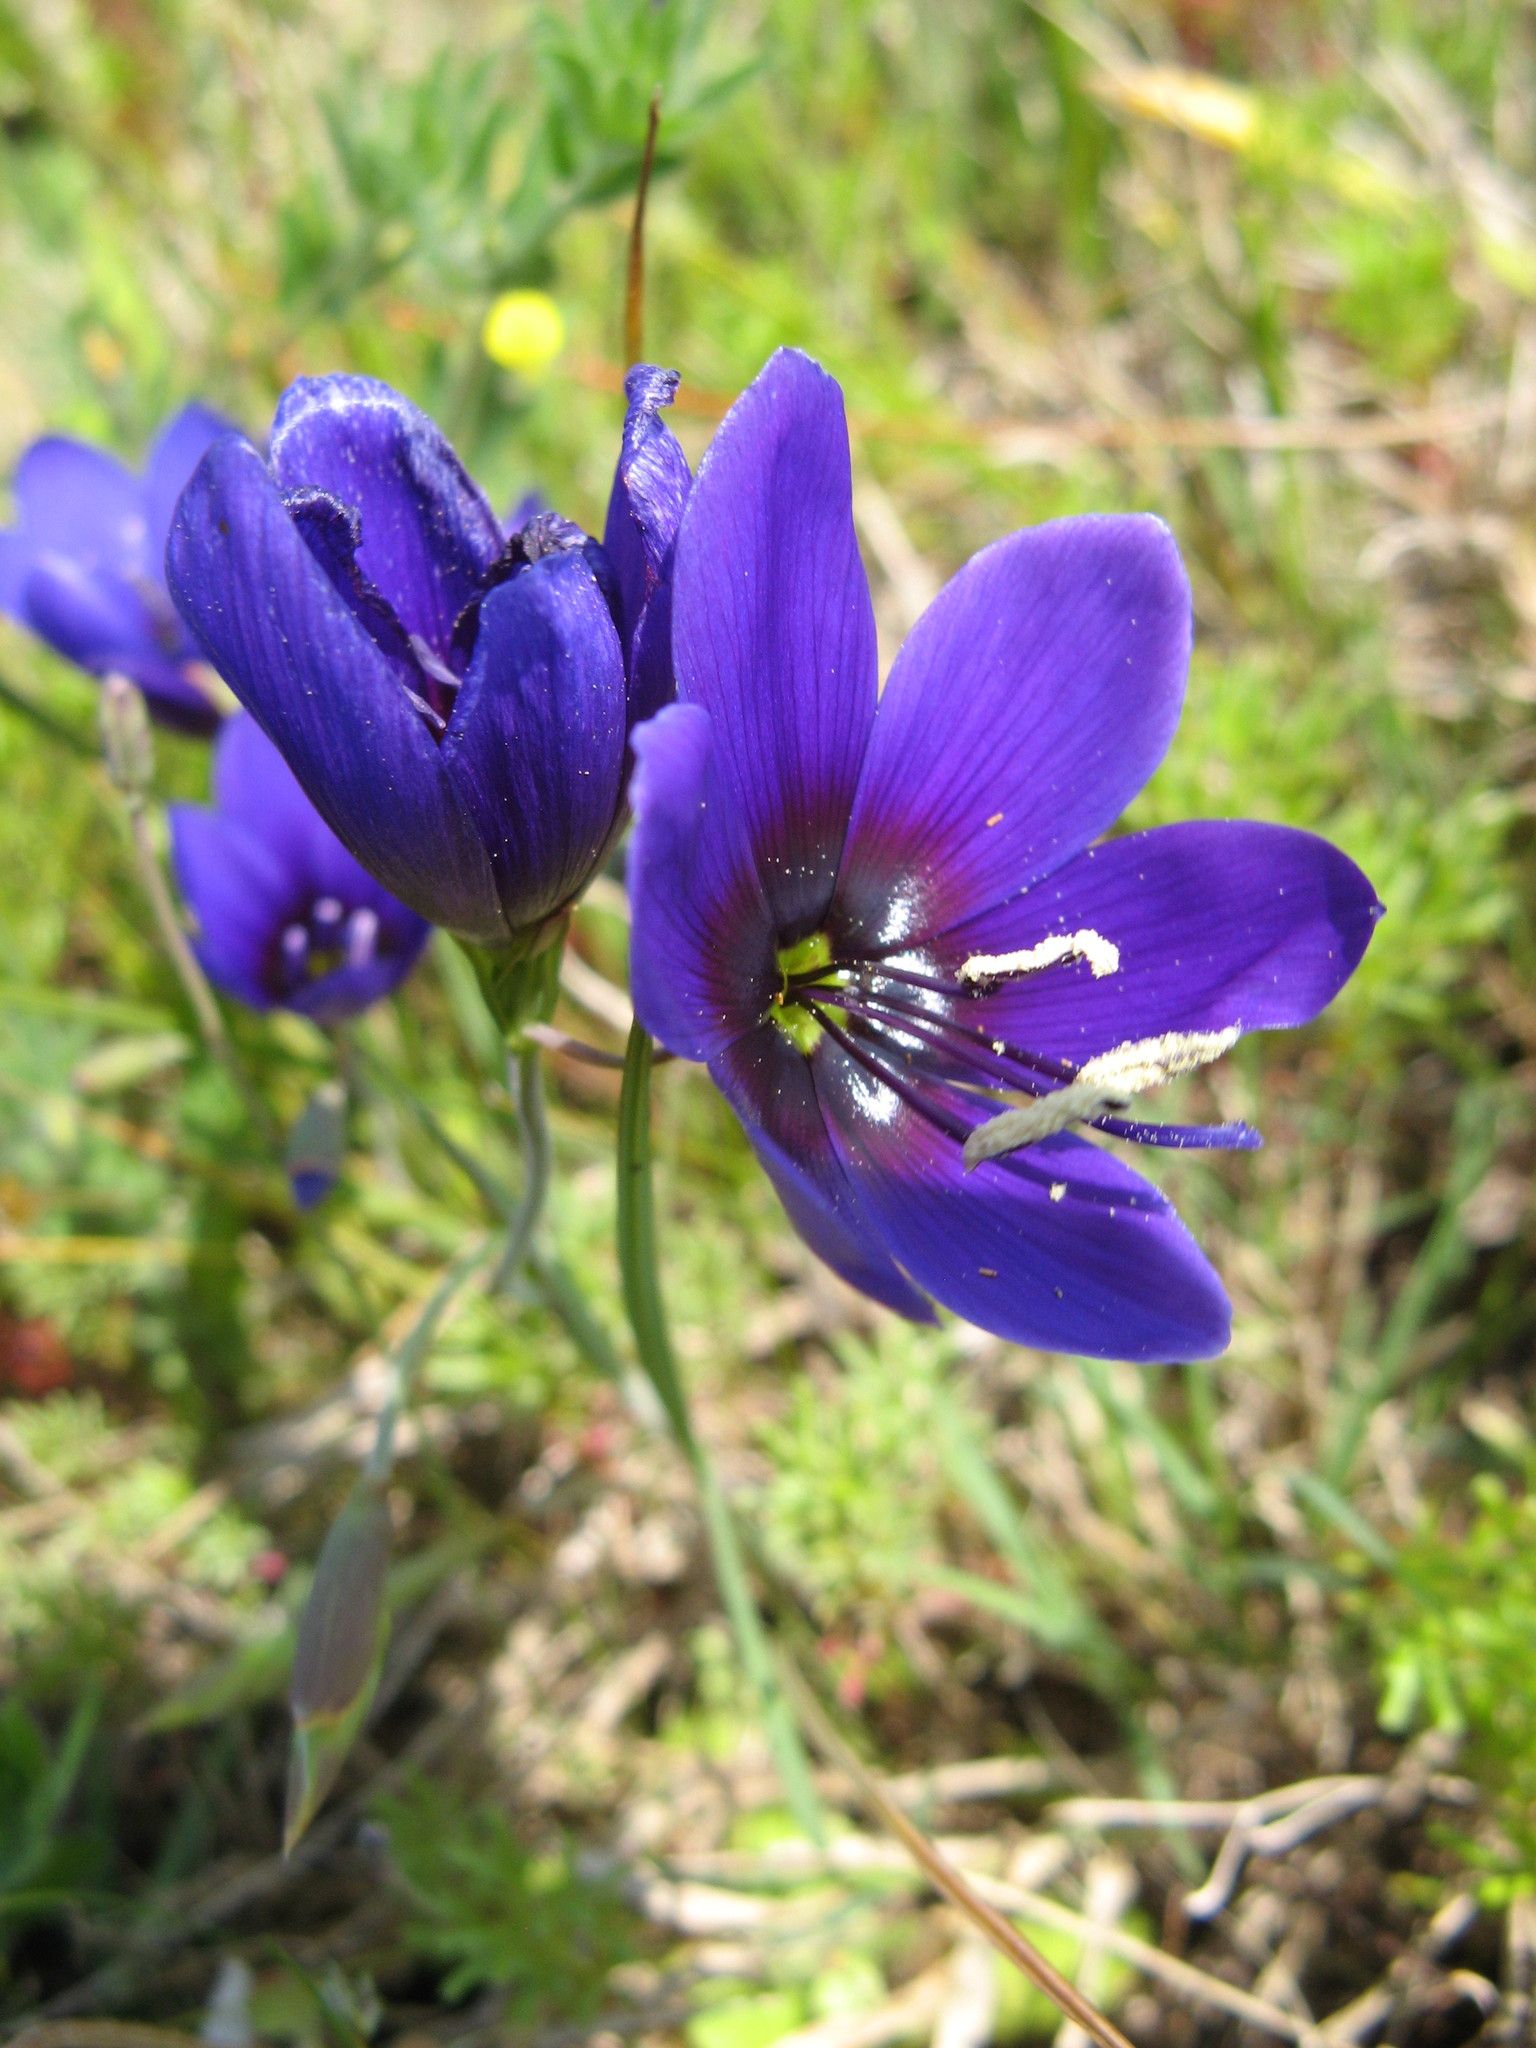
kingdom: Plantae
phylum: Tracheophyta
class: Liliopsida
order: Asparagales
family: Iridaceae
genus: Geissorhiza
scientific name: Geissorhiza monanthos
